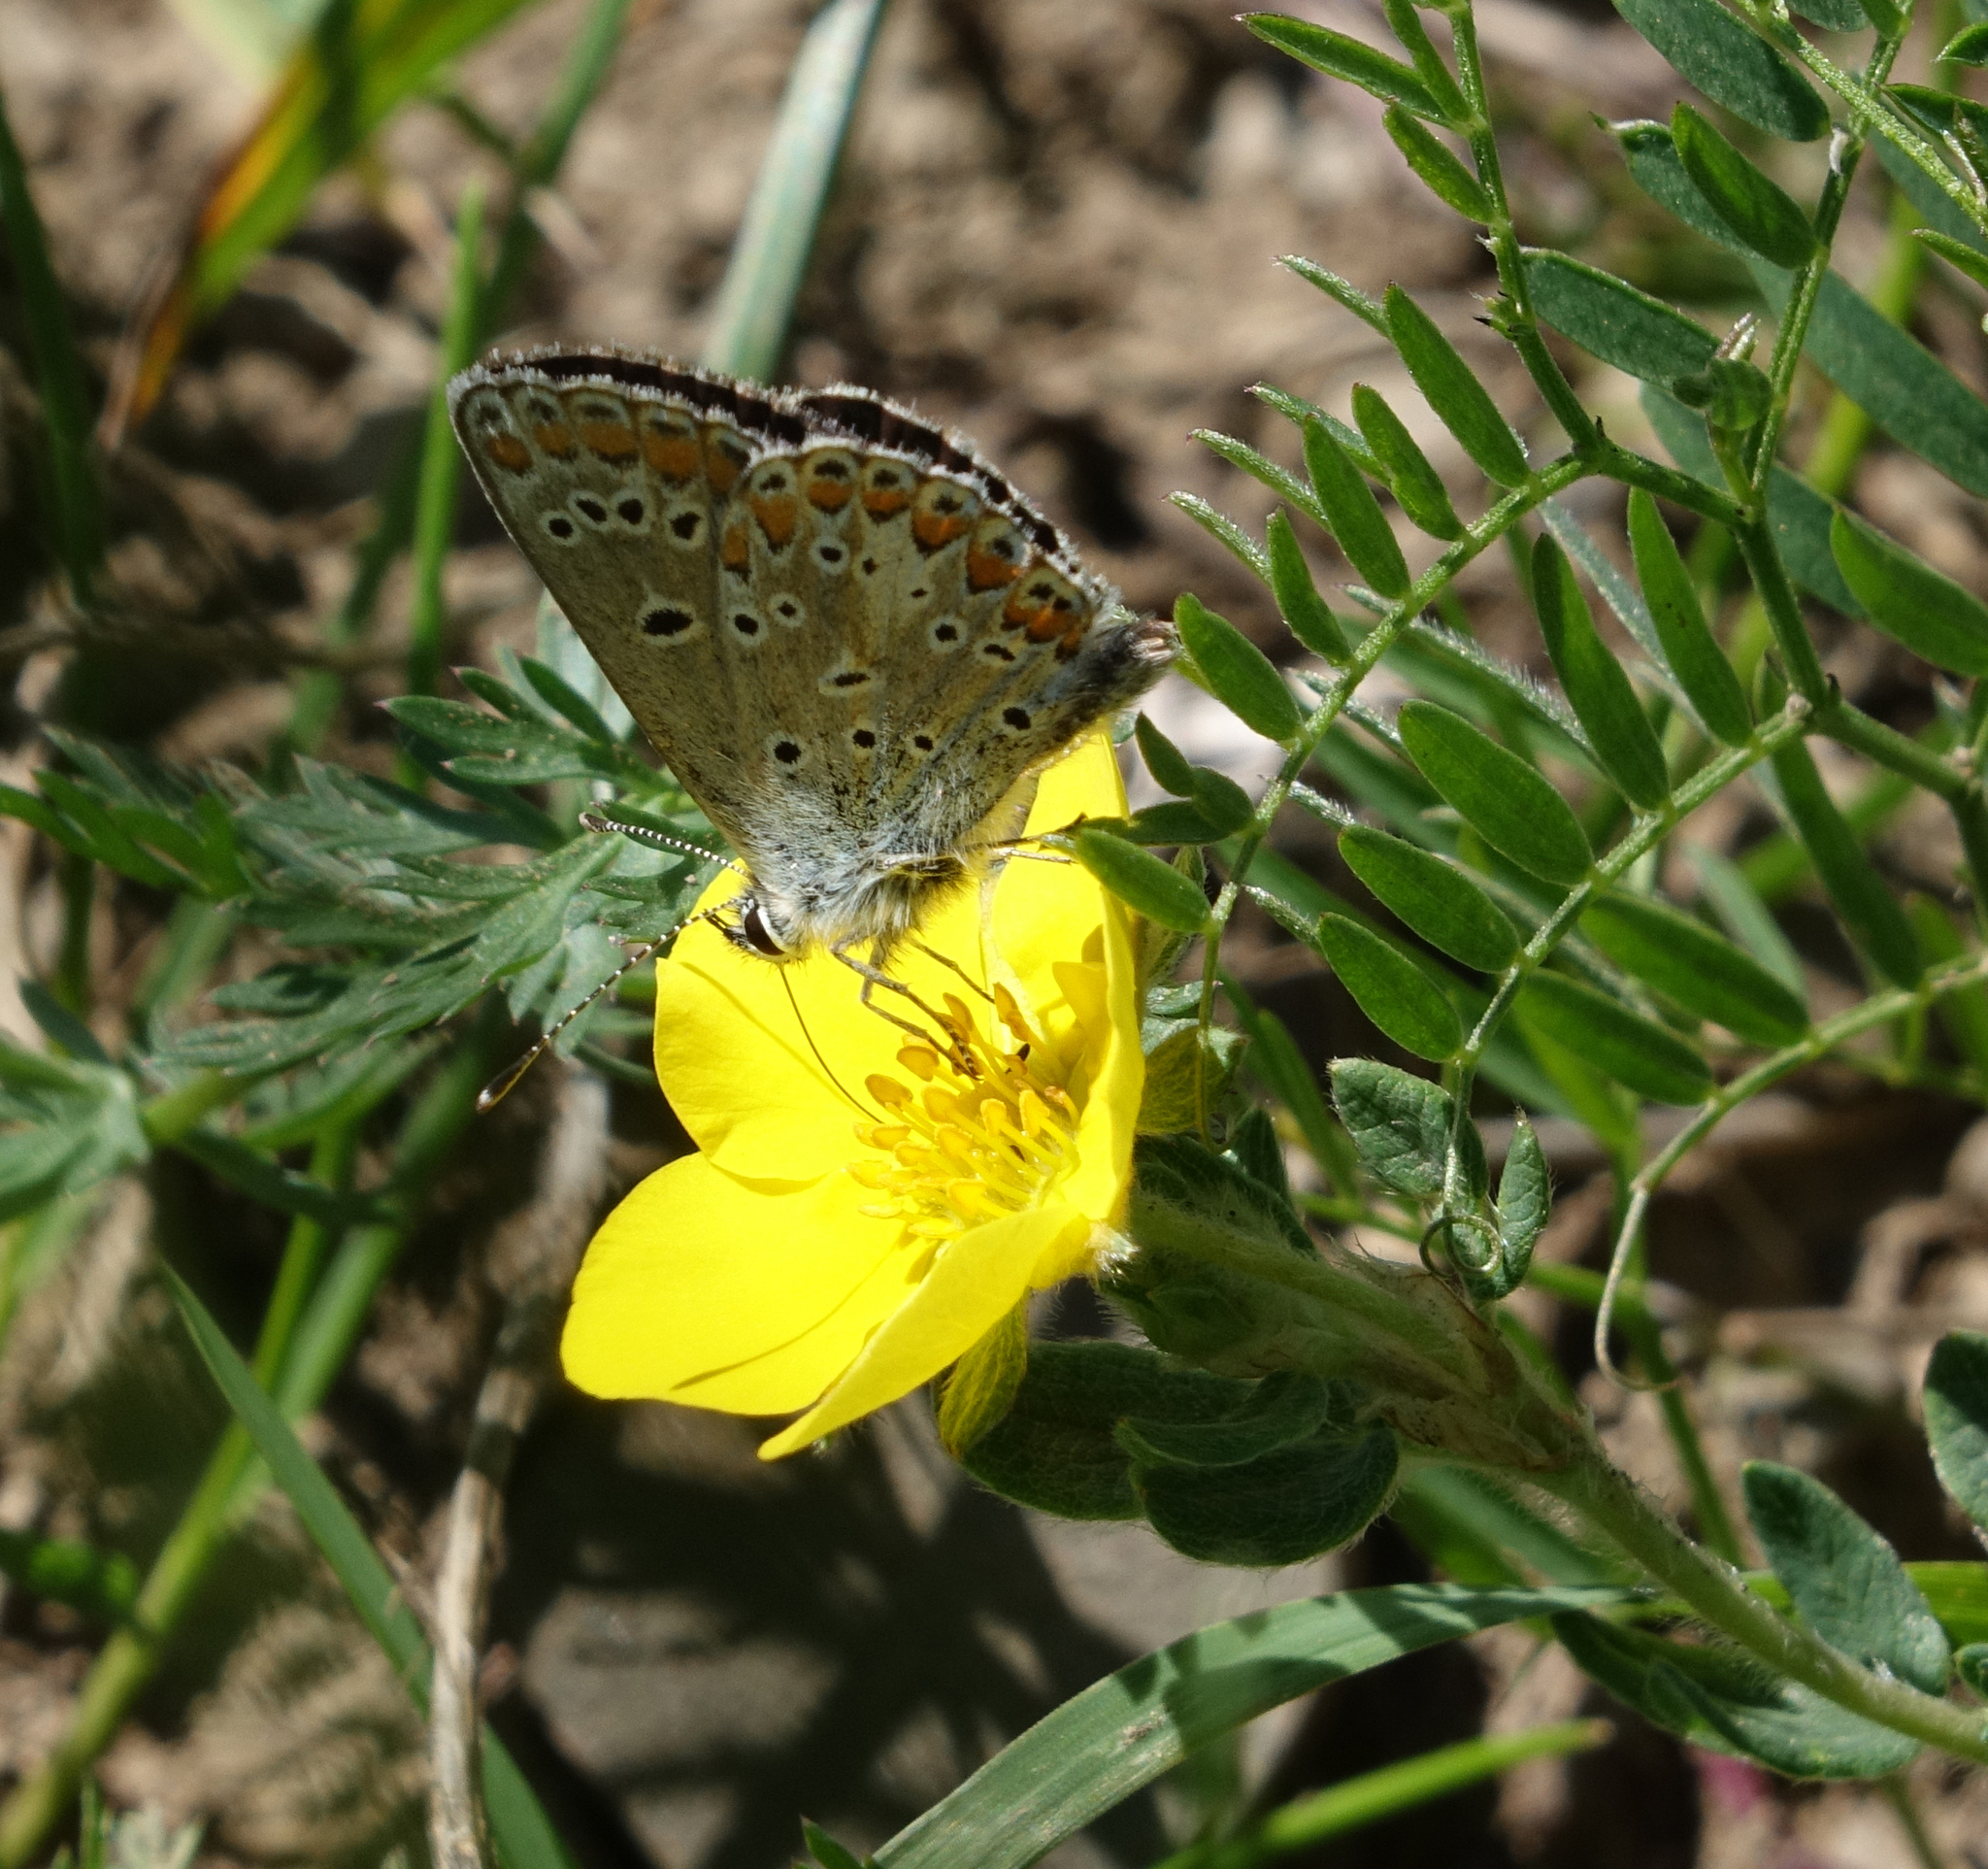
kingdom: Animalia
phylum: Arthropoda
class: Insecta
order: Lepidoptera
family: Lycaenidae
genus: Aricia
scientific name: Aricia artaxerxes
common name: Northern brown argus
